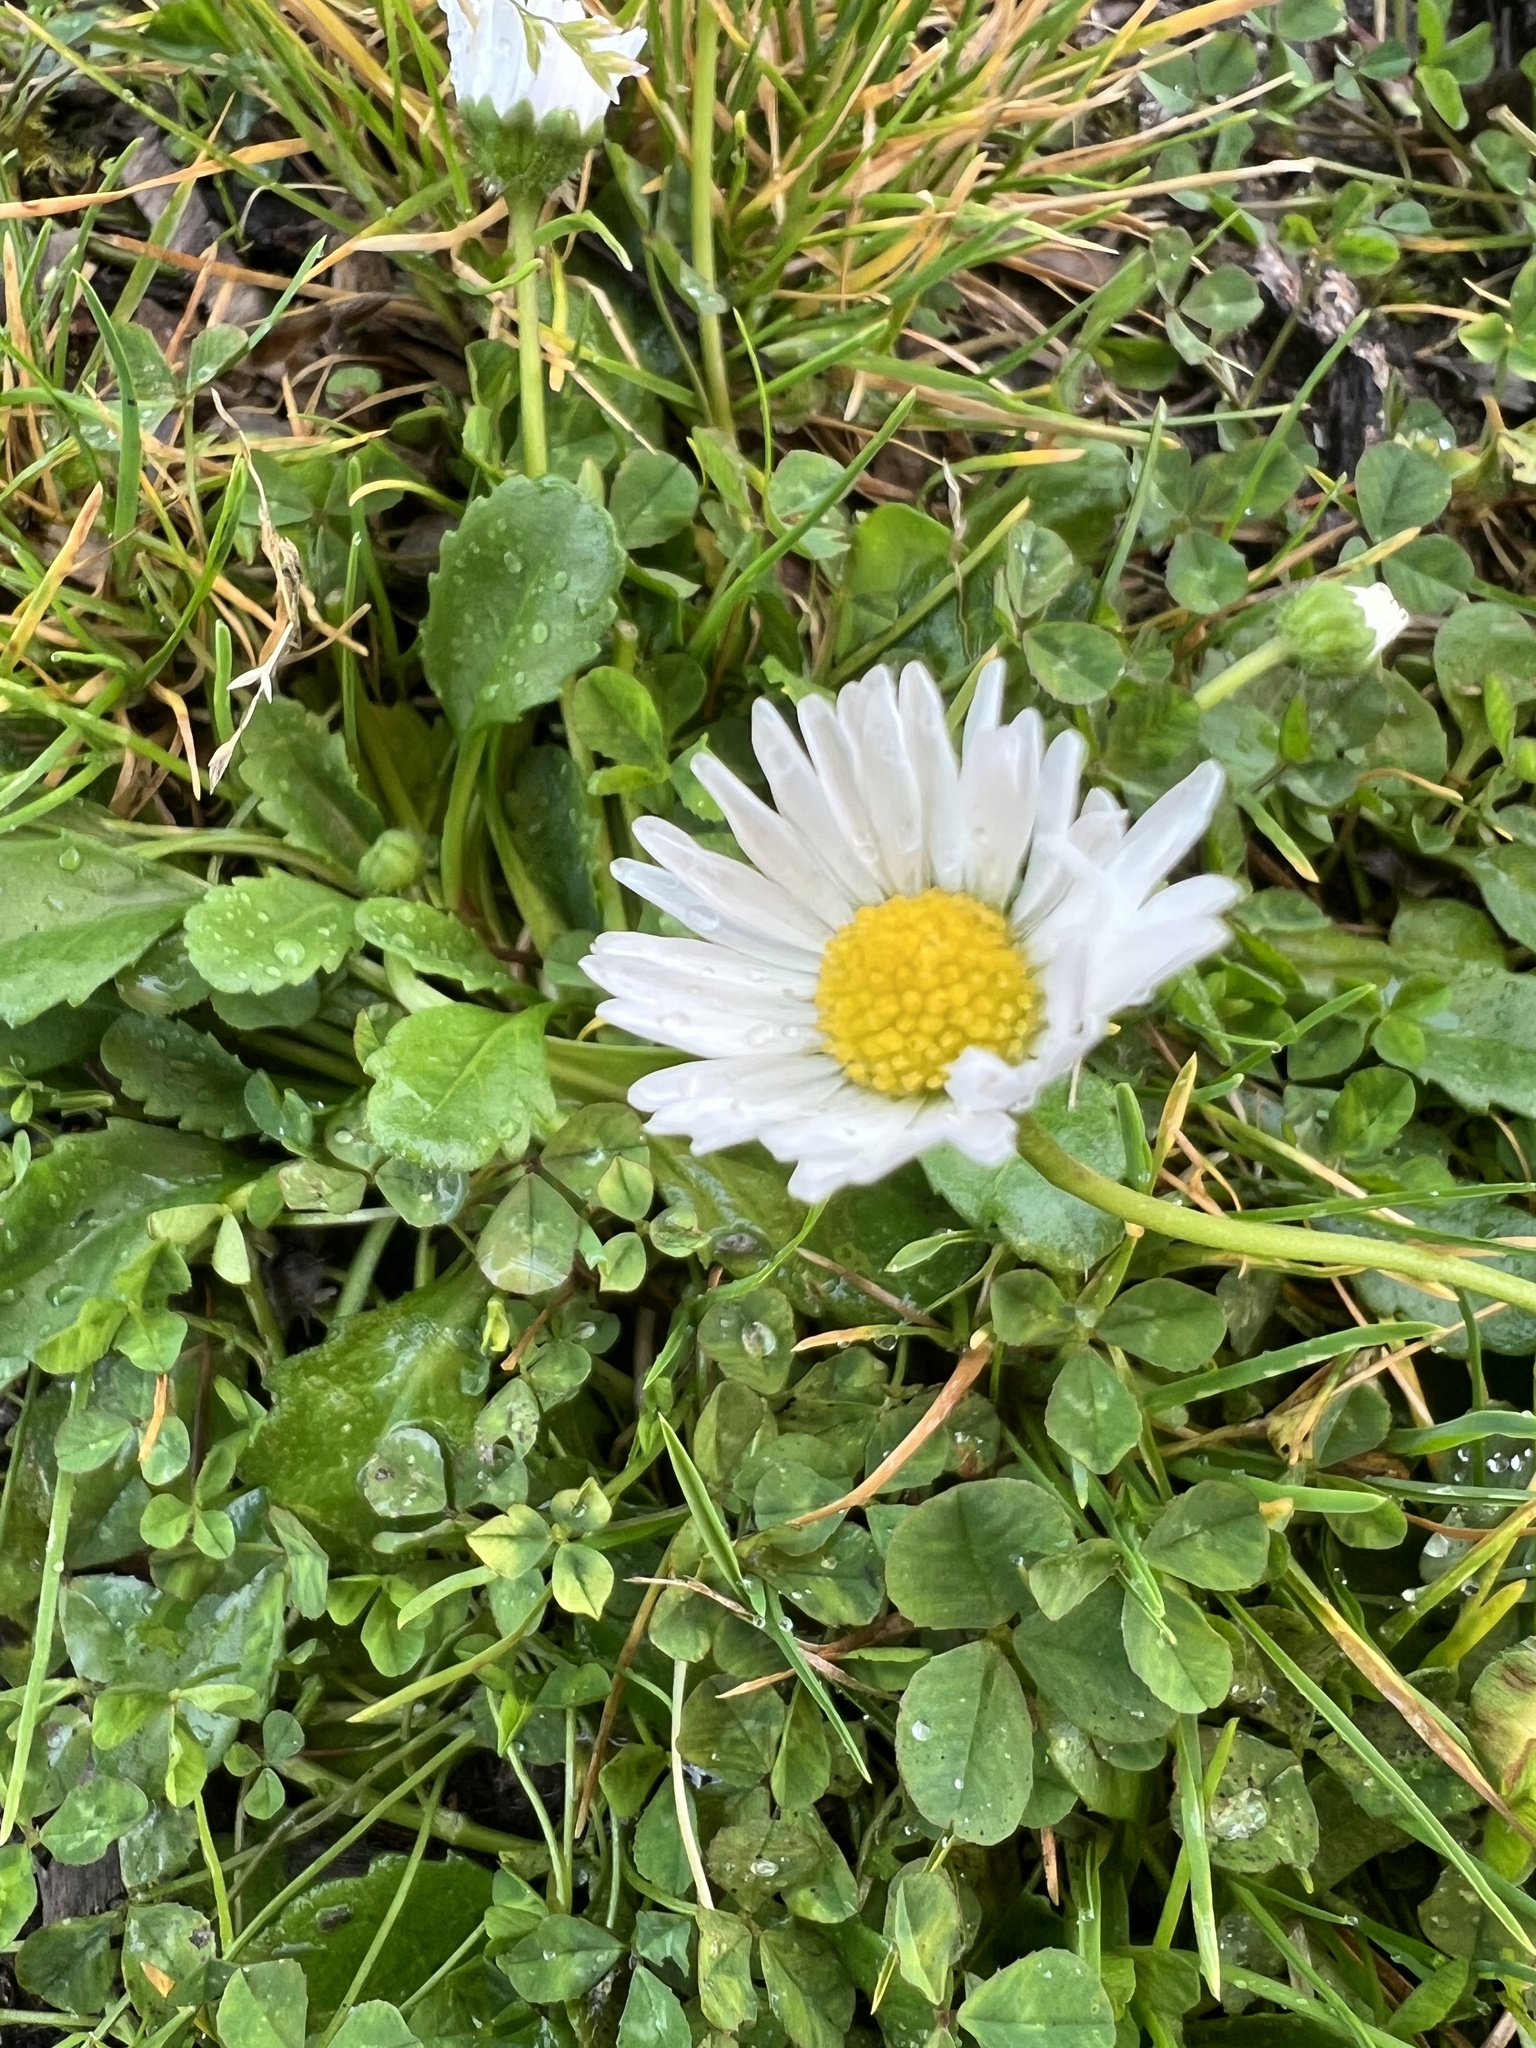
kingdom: Plantae
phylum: Tracheophyta
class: Magnoliopsida
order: Asterales
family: Asteraceae
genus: Bellis
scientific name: Bellis perennis
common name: Lawndaisy
